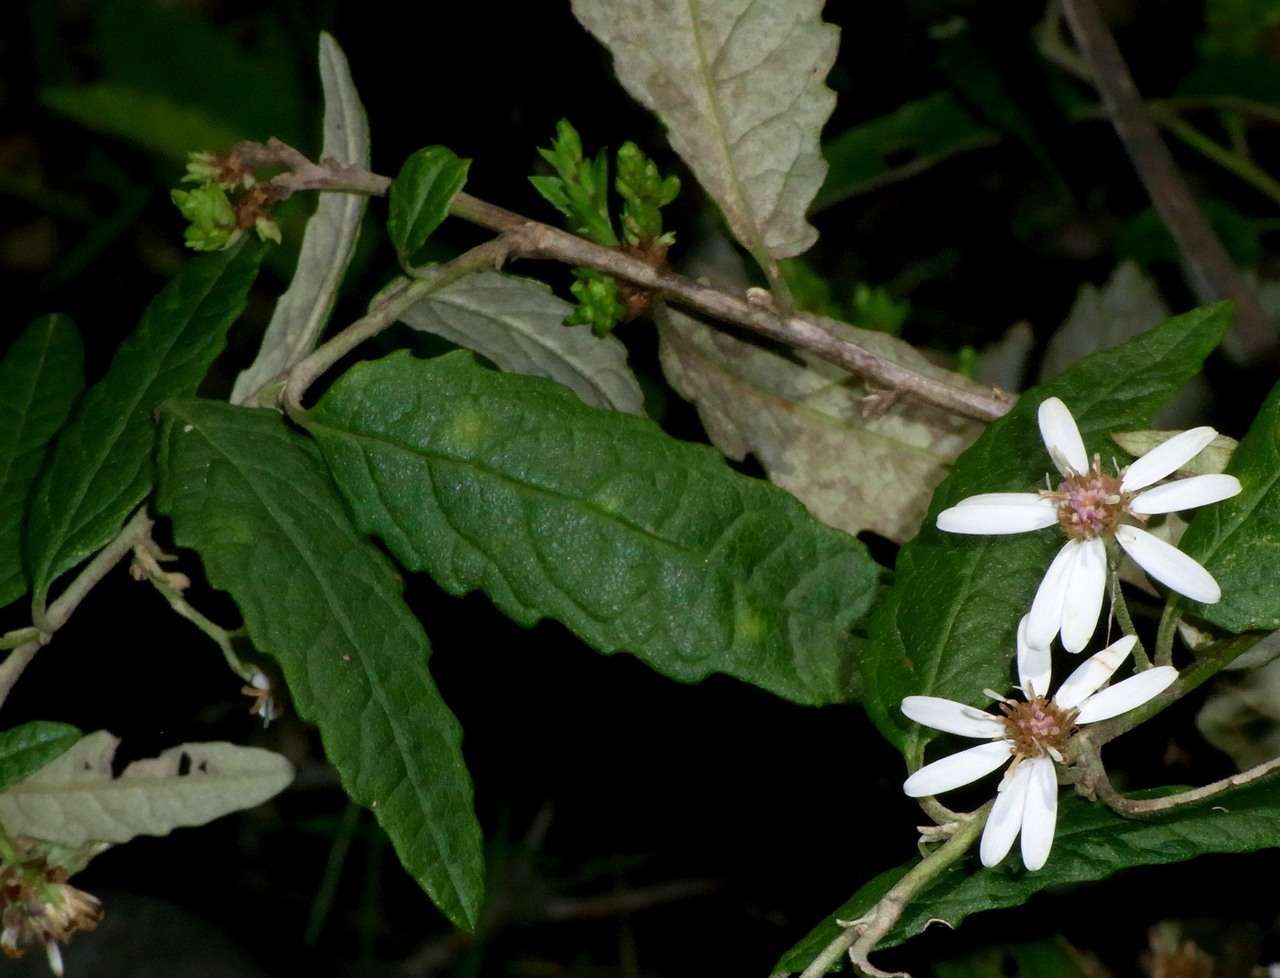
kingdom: Plantae
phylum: Tracheophyta
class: Magnoliopsida
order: Asterales
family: Asteraceae
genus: Olearia
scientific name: Olearia rugosa
